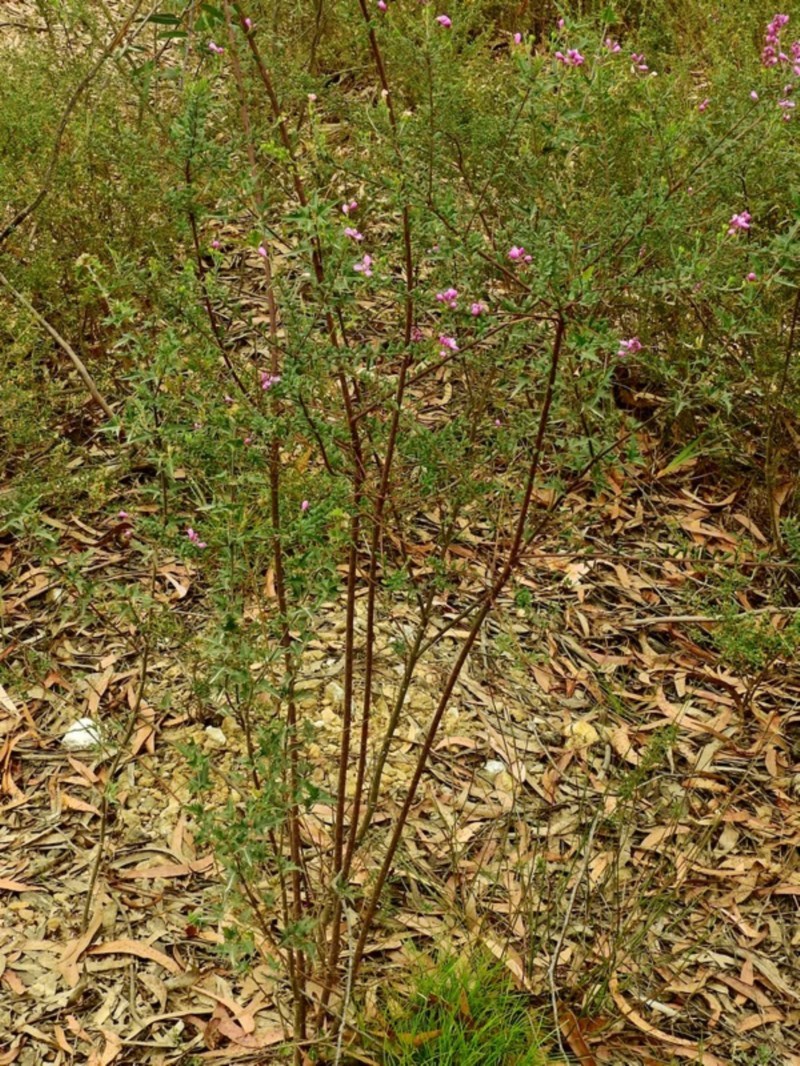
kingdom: Plantae
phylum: Tracheophyta
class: Magnoliopsida
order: Fabales
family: Polygalaceae
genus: Comesperma
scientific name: Comesperma ericinum
